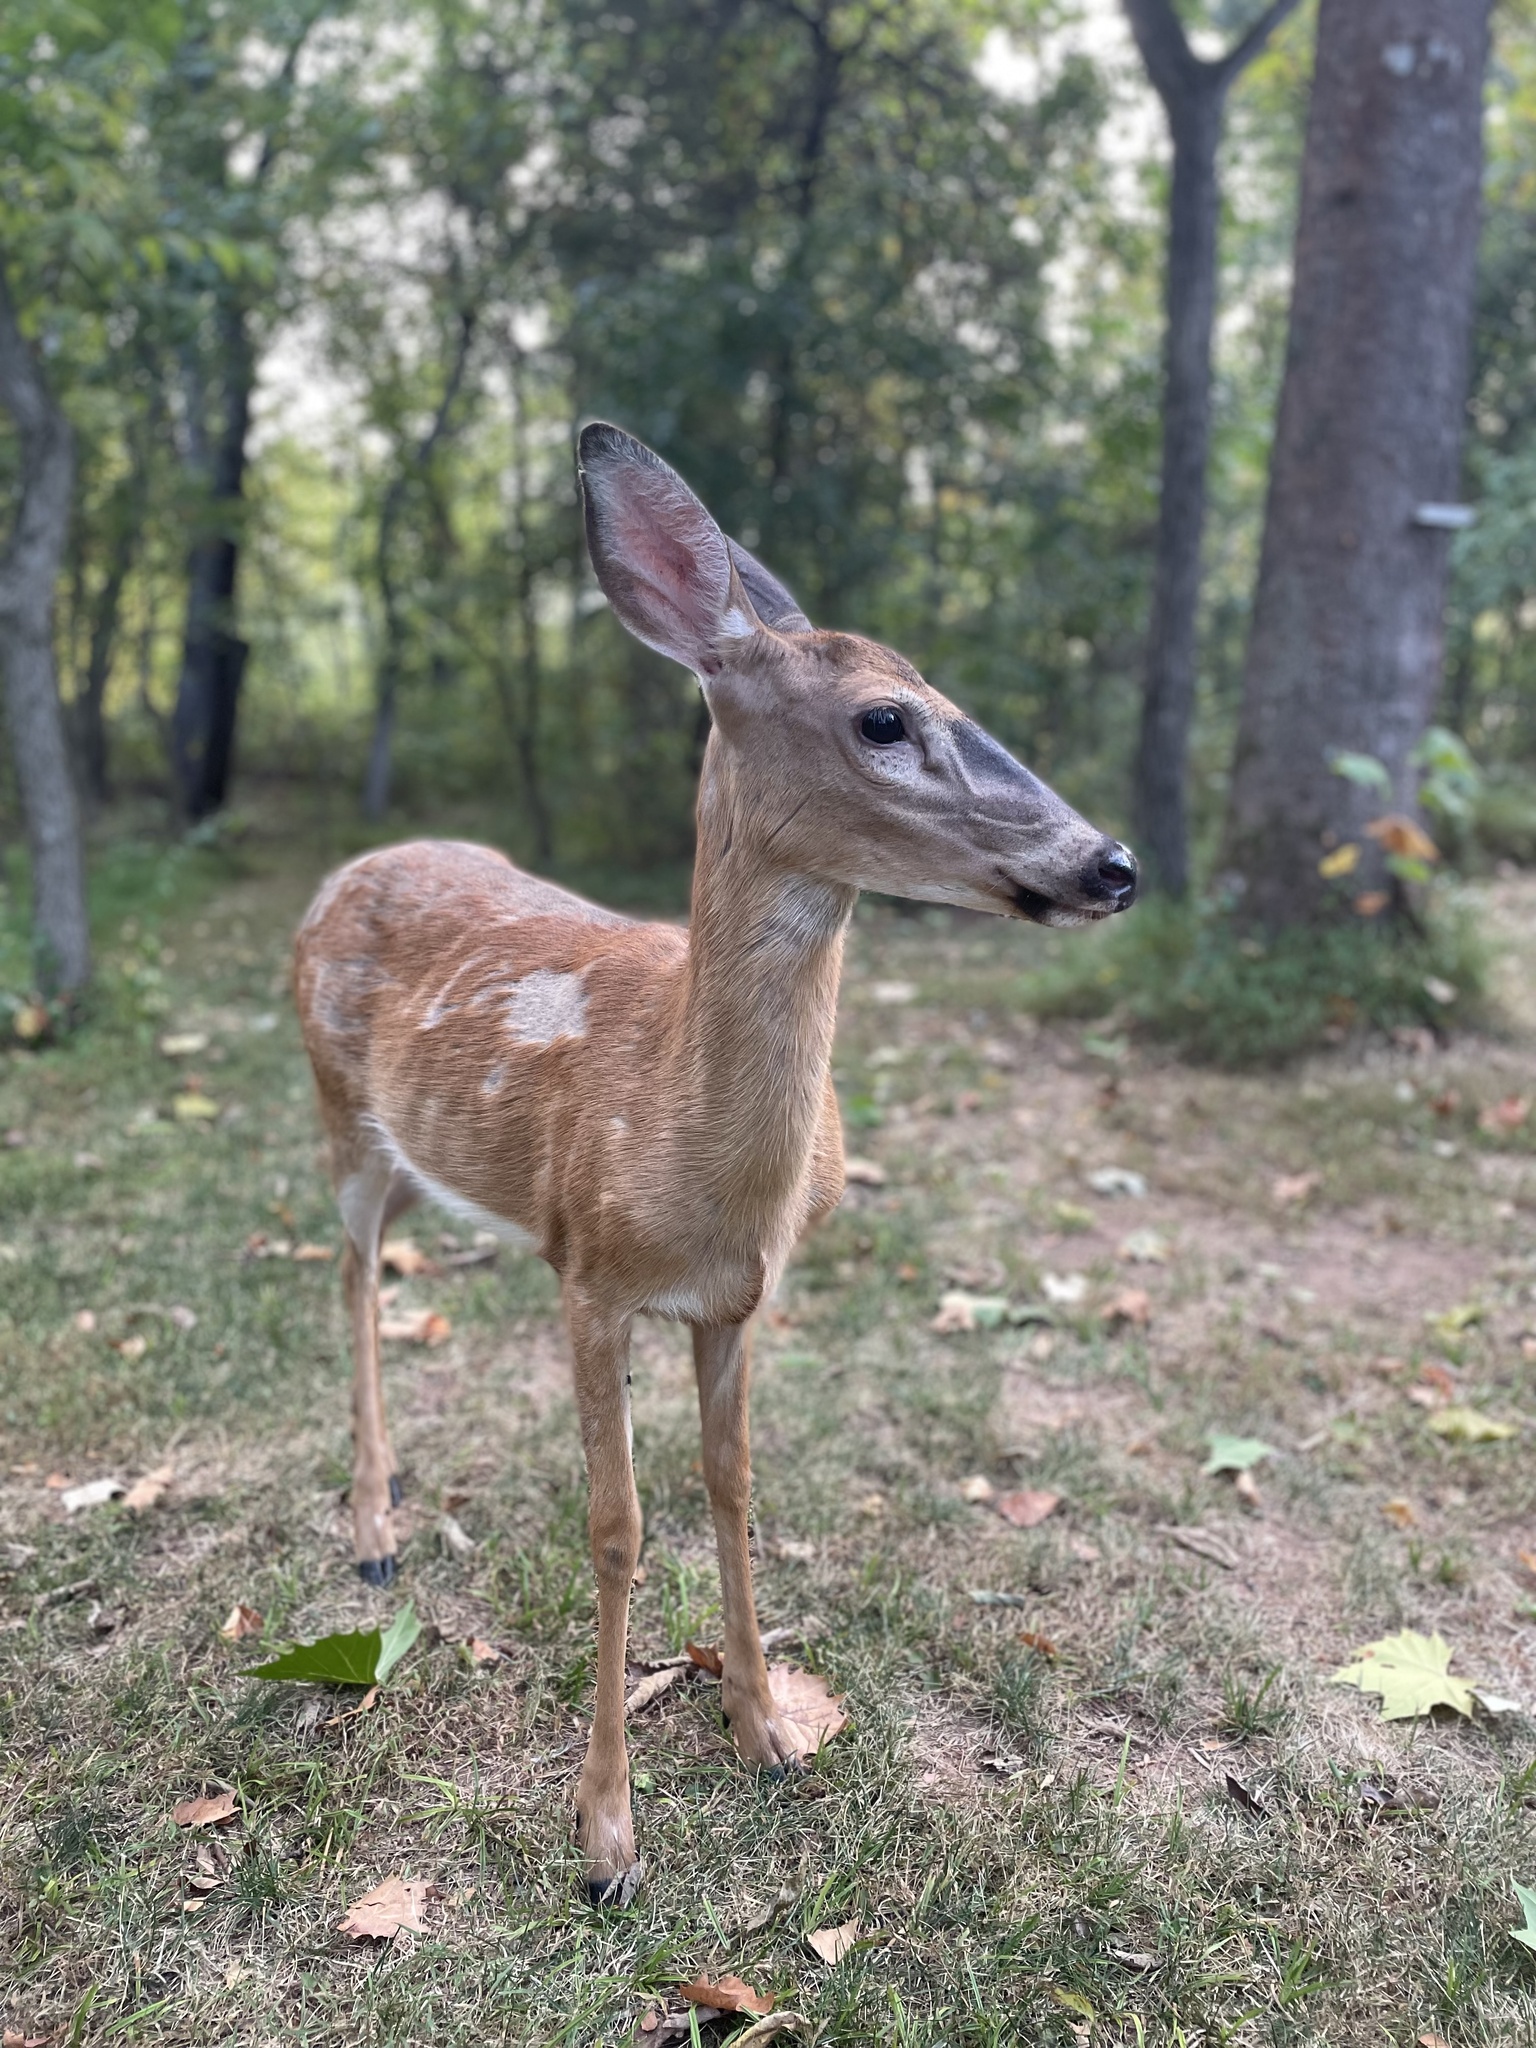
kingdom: Animalia
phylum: Chordata
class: Mammalia
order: Artiodactyla
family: Cervidae
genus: Odocoileus
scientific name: Odocoileus virginianus
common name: White-tailed deer
